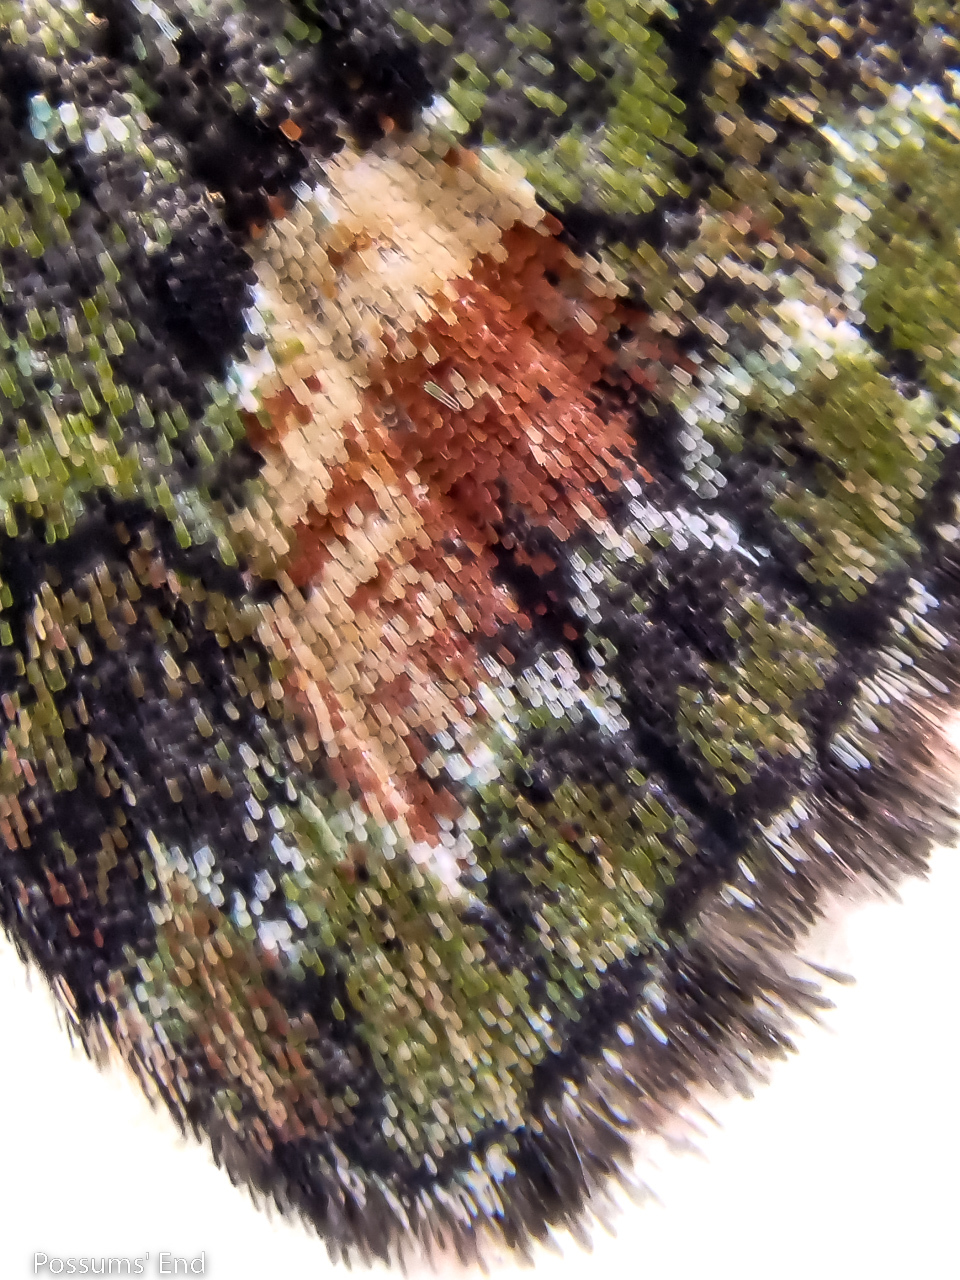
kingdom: Animalia
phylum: Arthropoda
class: Insecta
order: Lepidoptera
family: Geometridae
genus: Idaea
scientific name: Idaea mutanda
